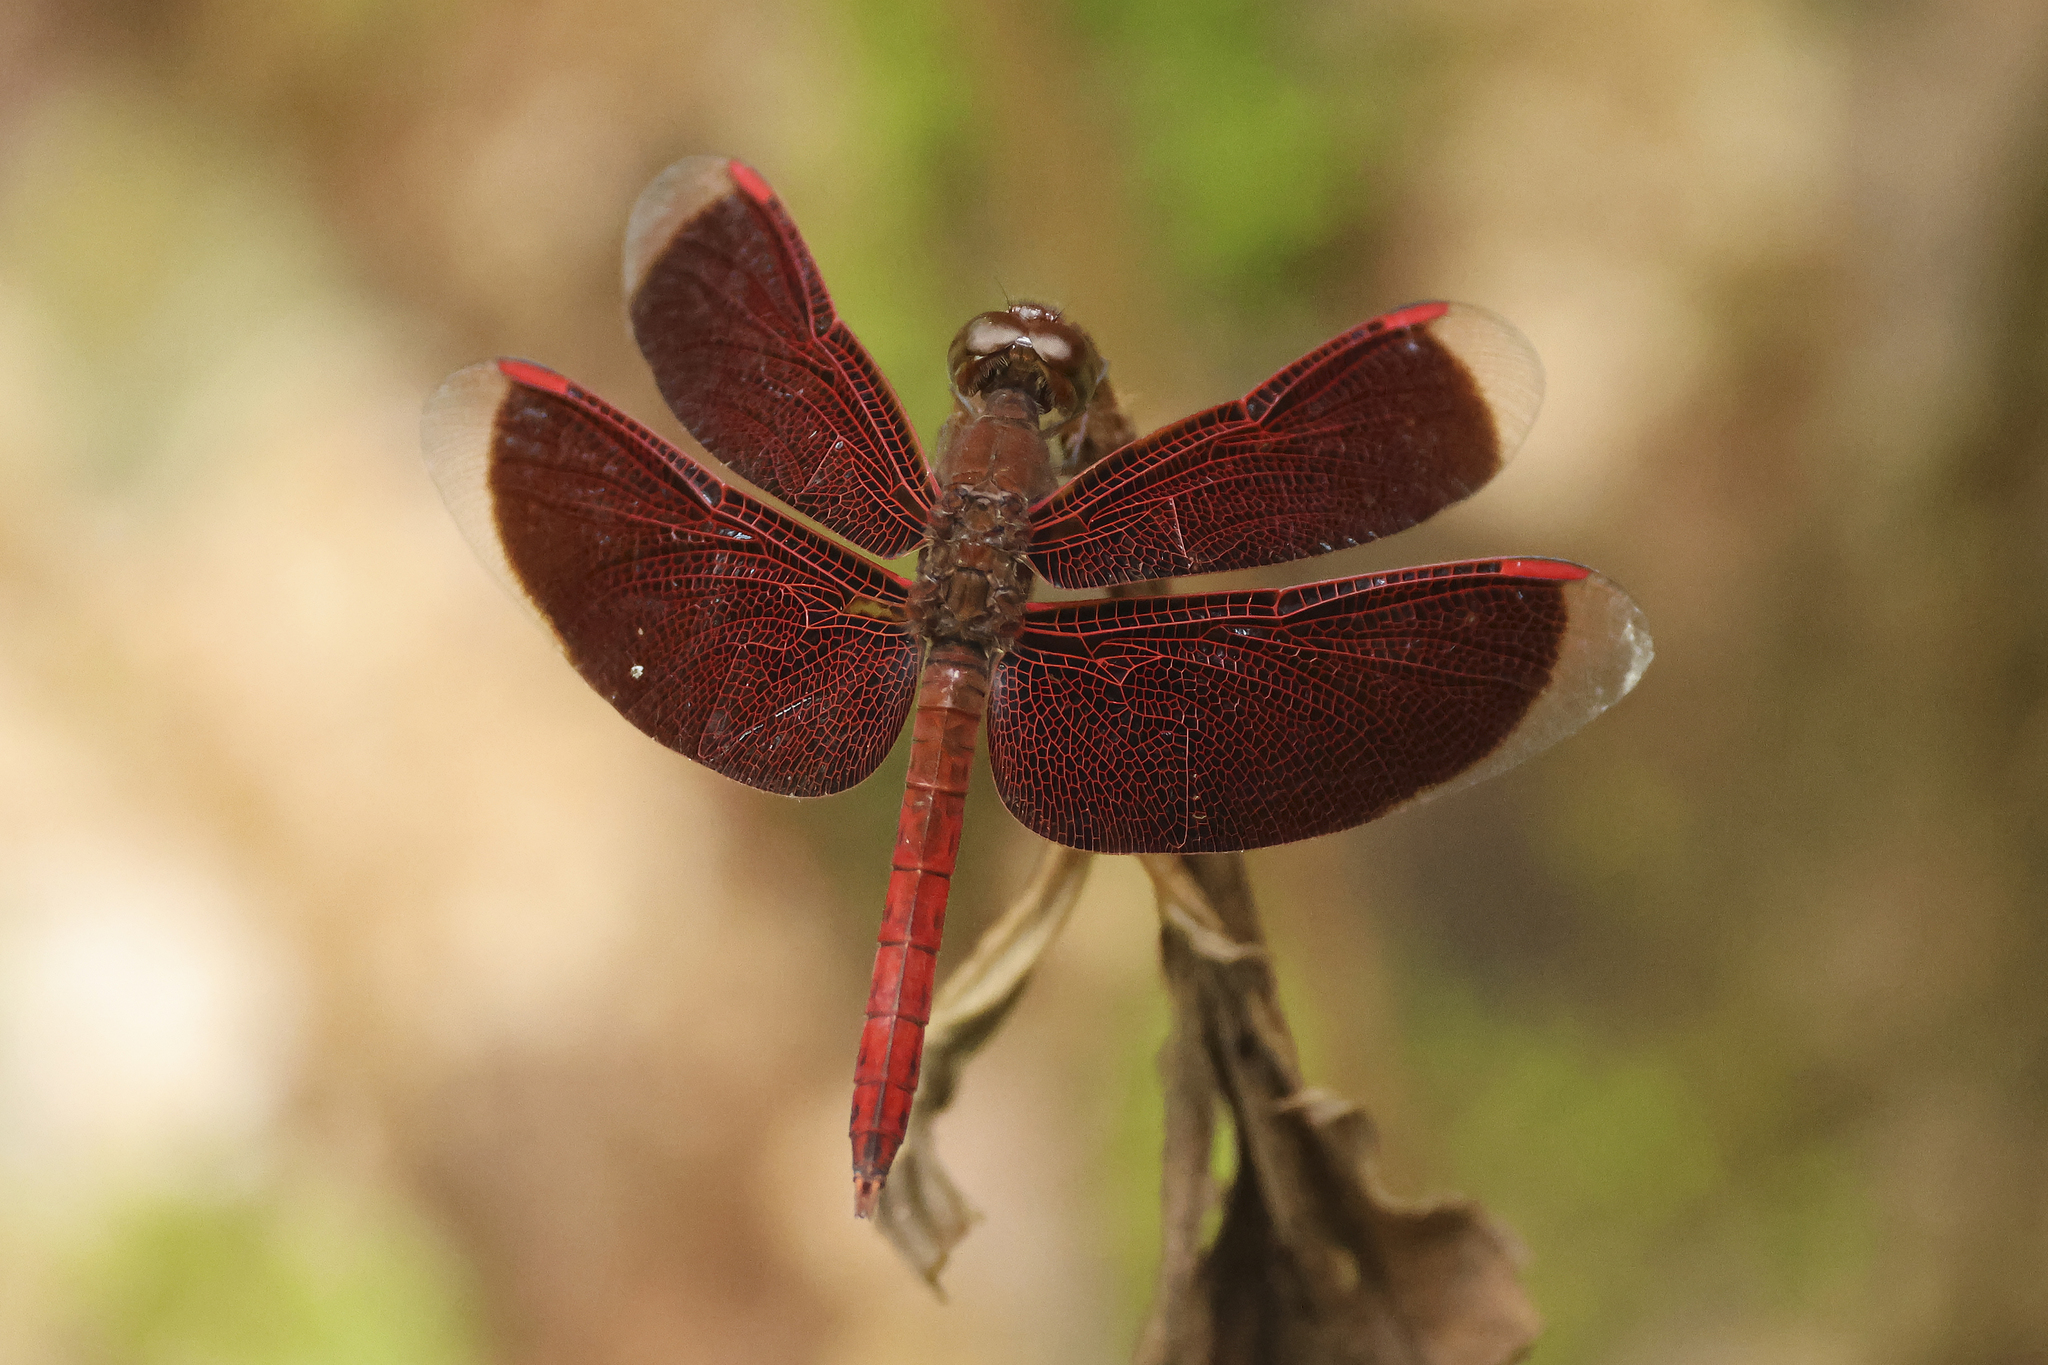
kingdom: Animalia
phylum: Arthropoda
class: Insecta
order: Odonata
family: Libellulidae
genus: Neurothemis
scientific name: Neurothemis fluctuans
